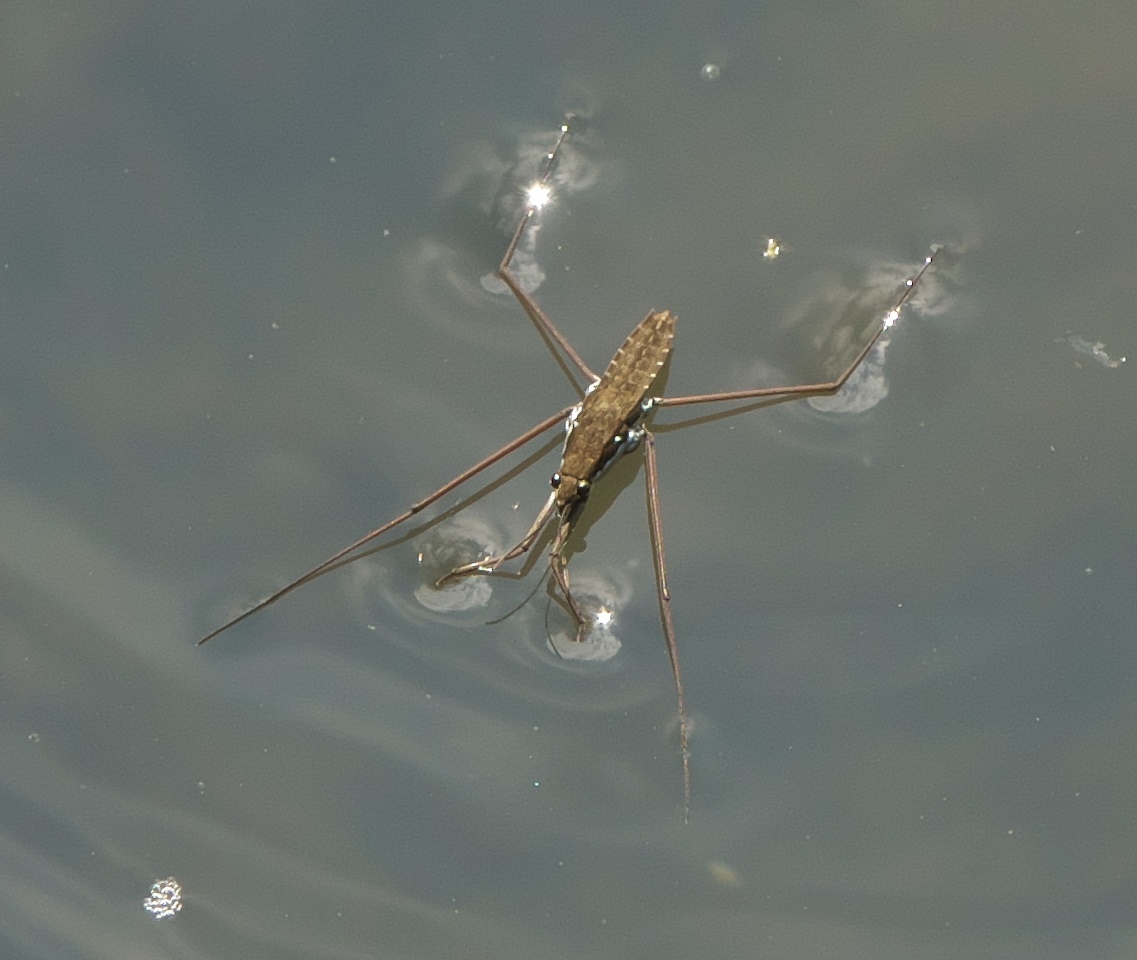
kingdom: Animalia
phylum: Arthropoda
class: Insecta
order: Hemiptera
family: Gerridae
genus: Aquarius
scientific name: Aquarius remigis
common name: Common water strider
